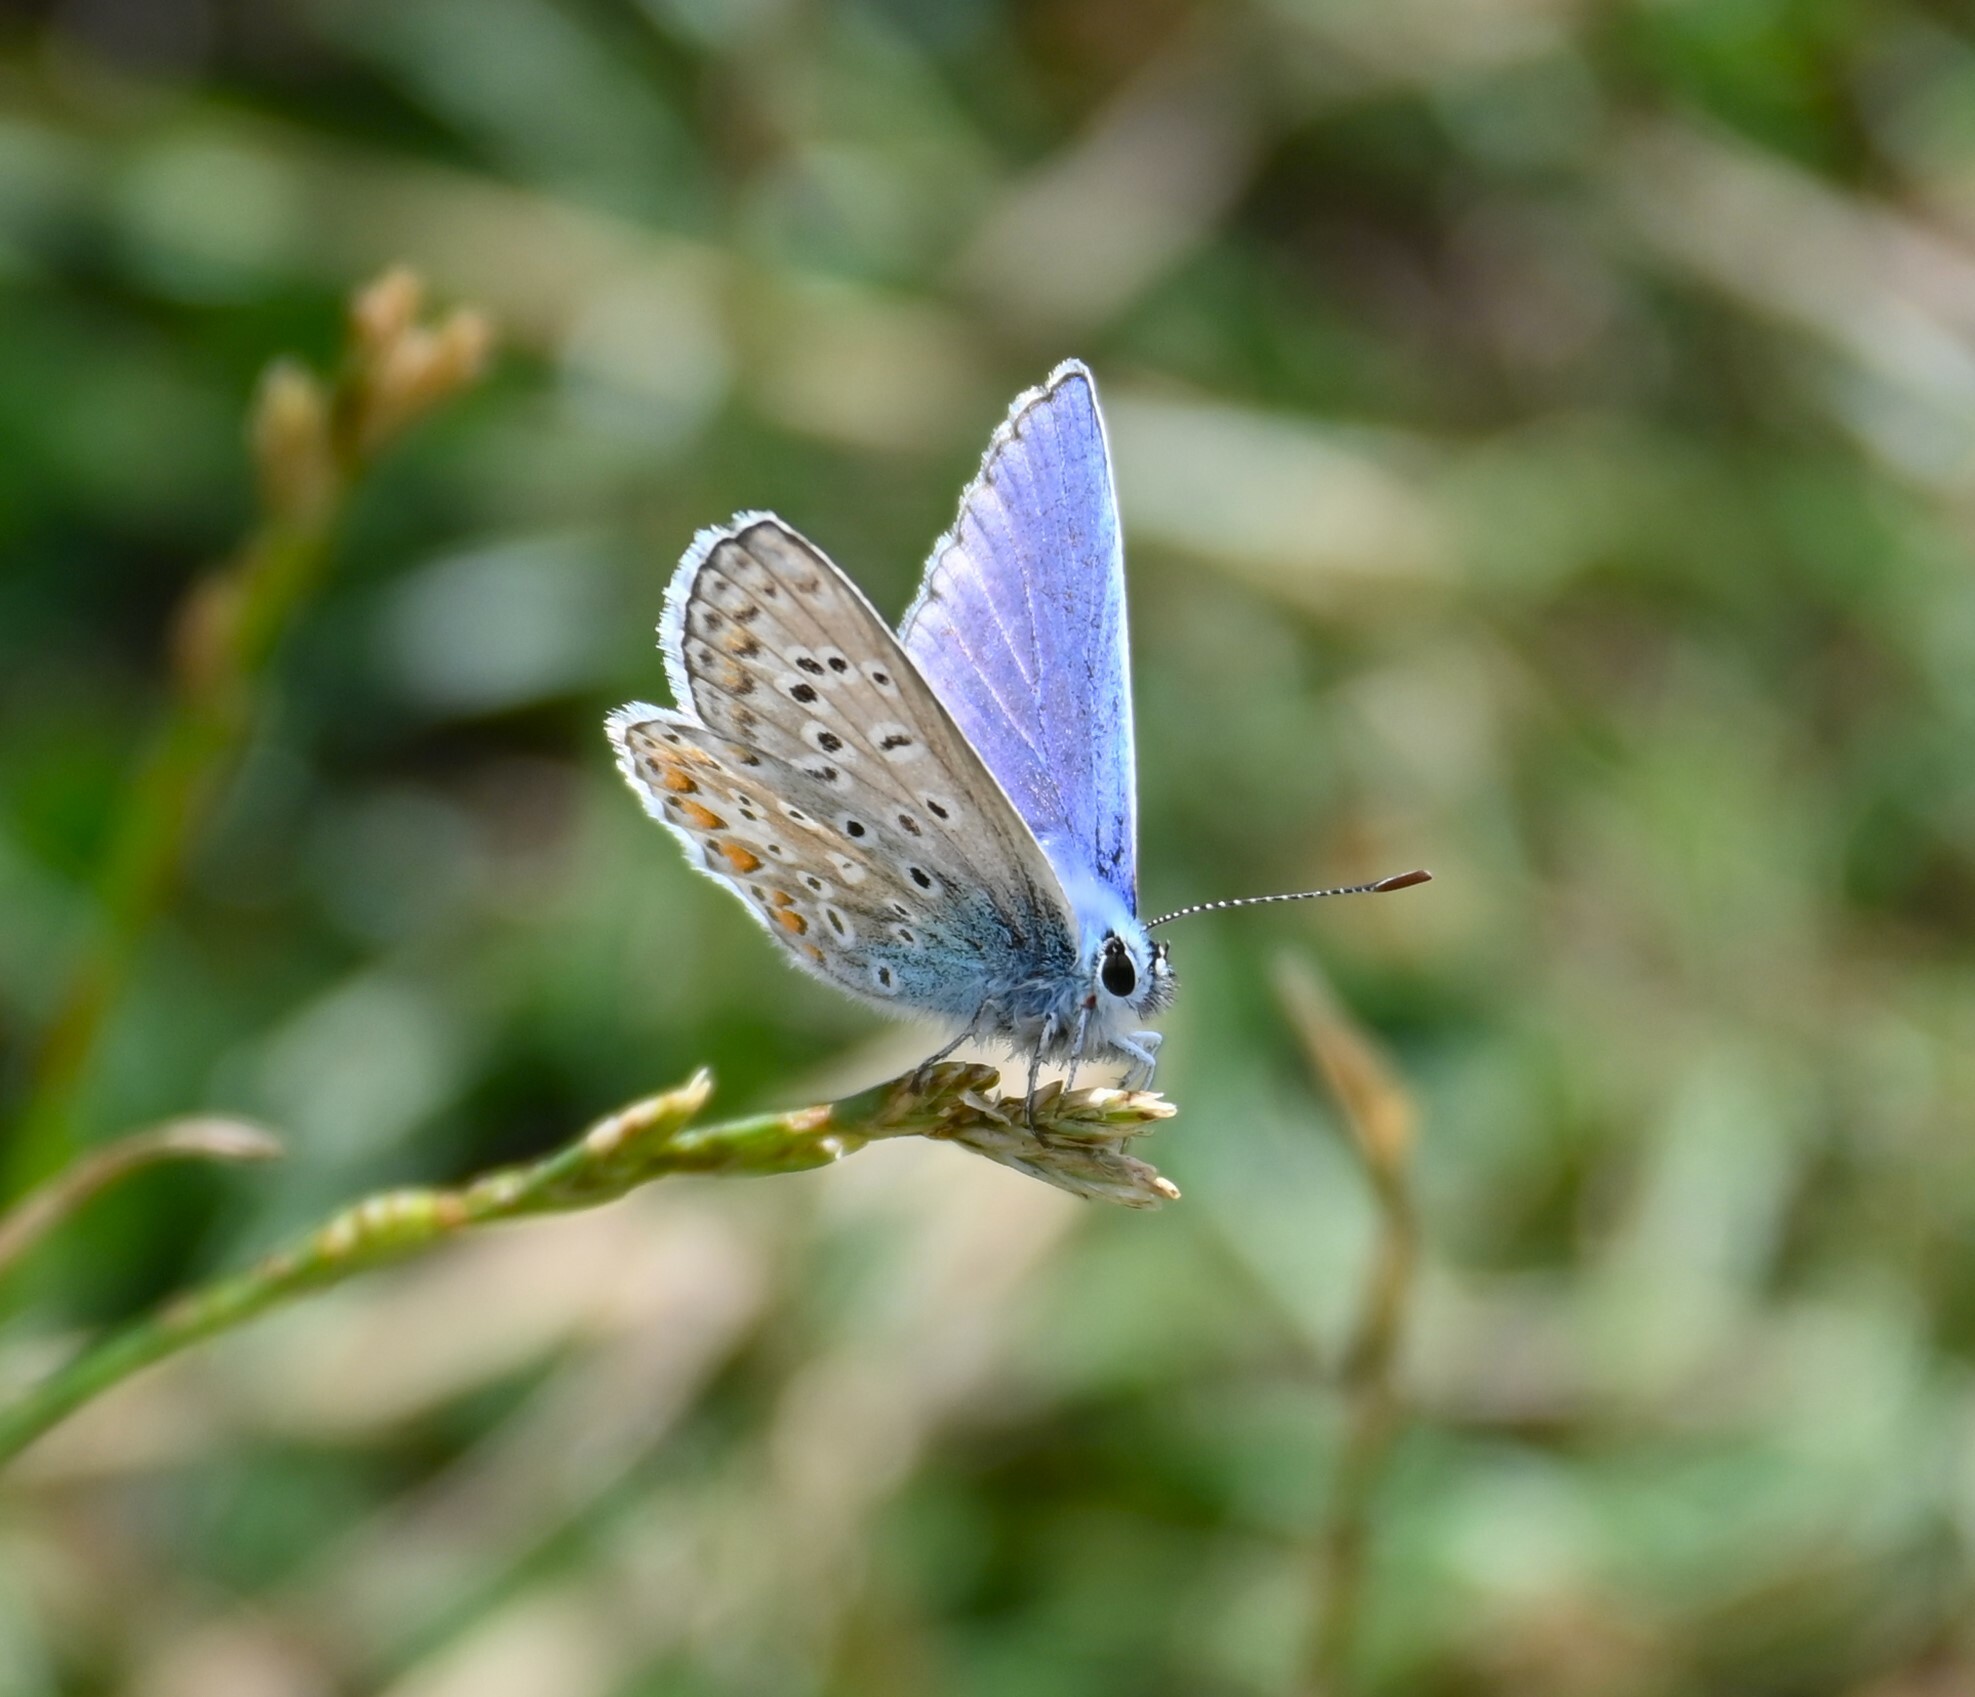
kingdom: Animalia
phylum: Arthropoda
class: Insecta
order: Lepidoptera
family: Lycaenidae
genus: Polyommatus
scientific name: Polyommatus icarus
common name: Common blue
